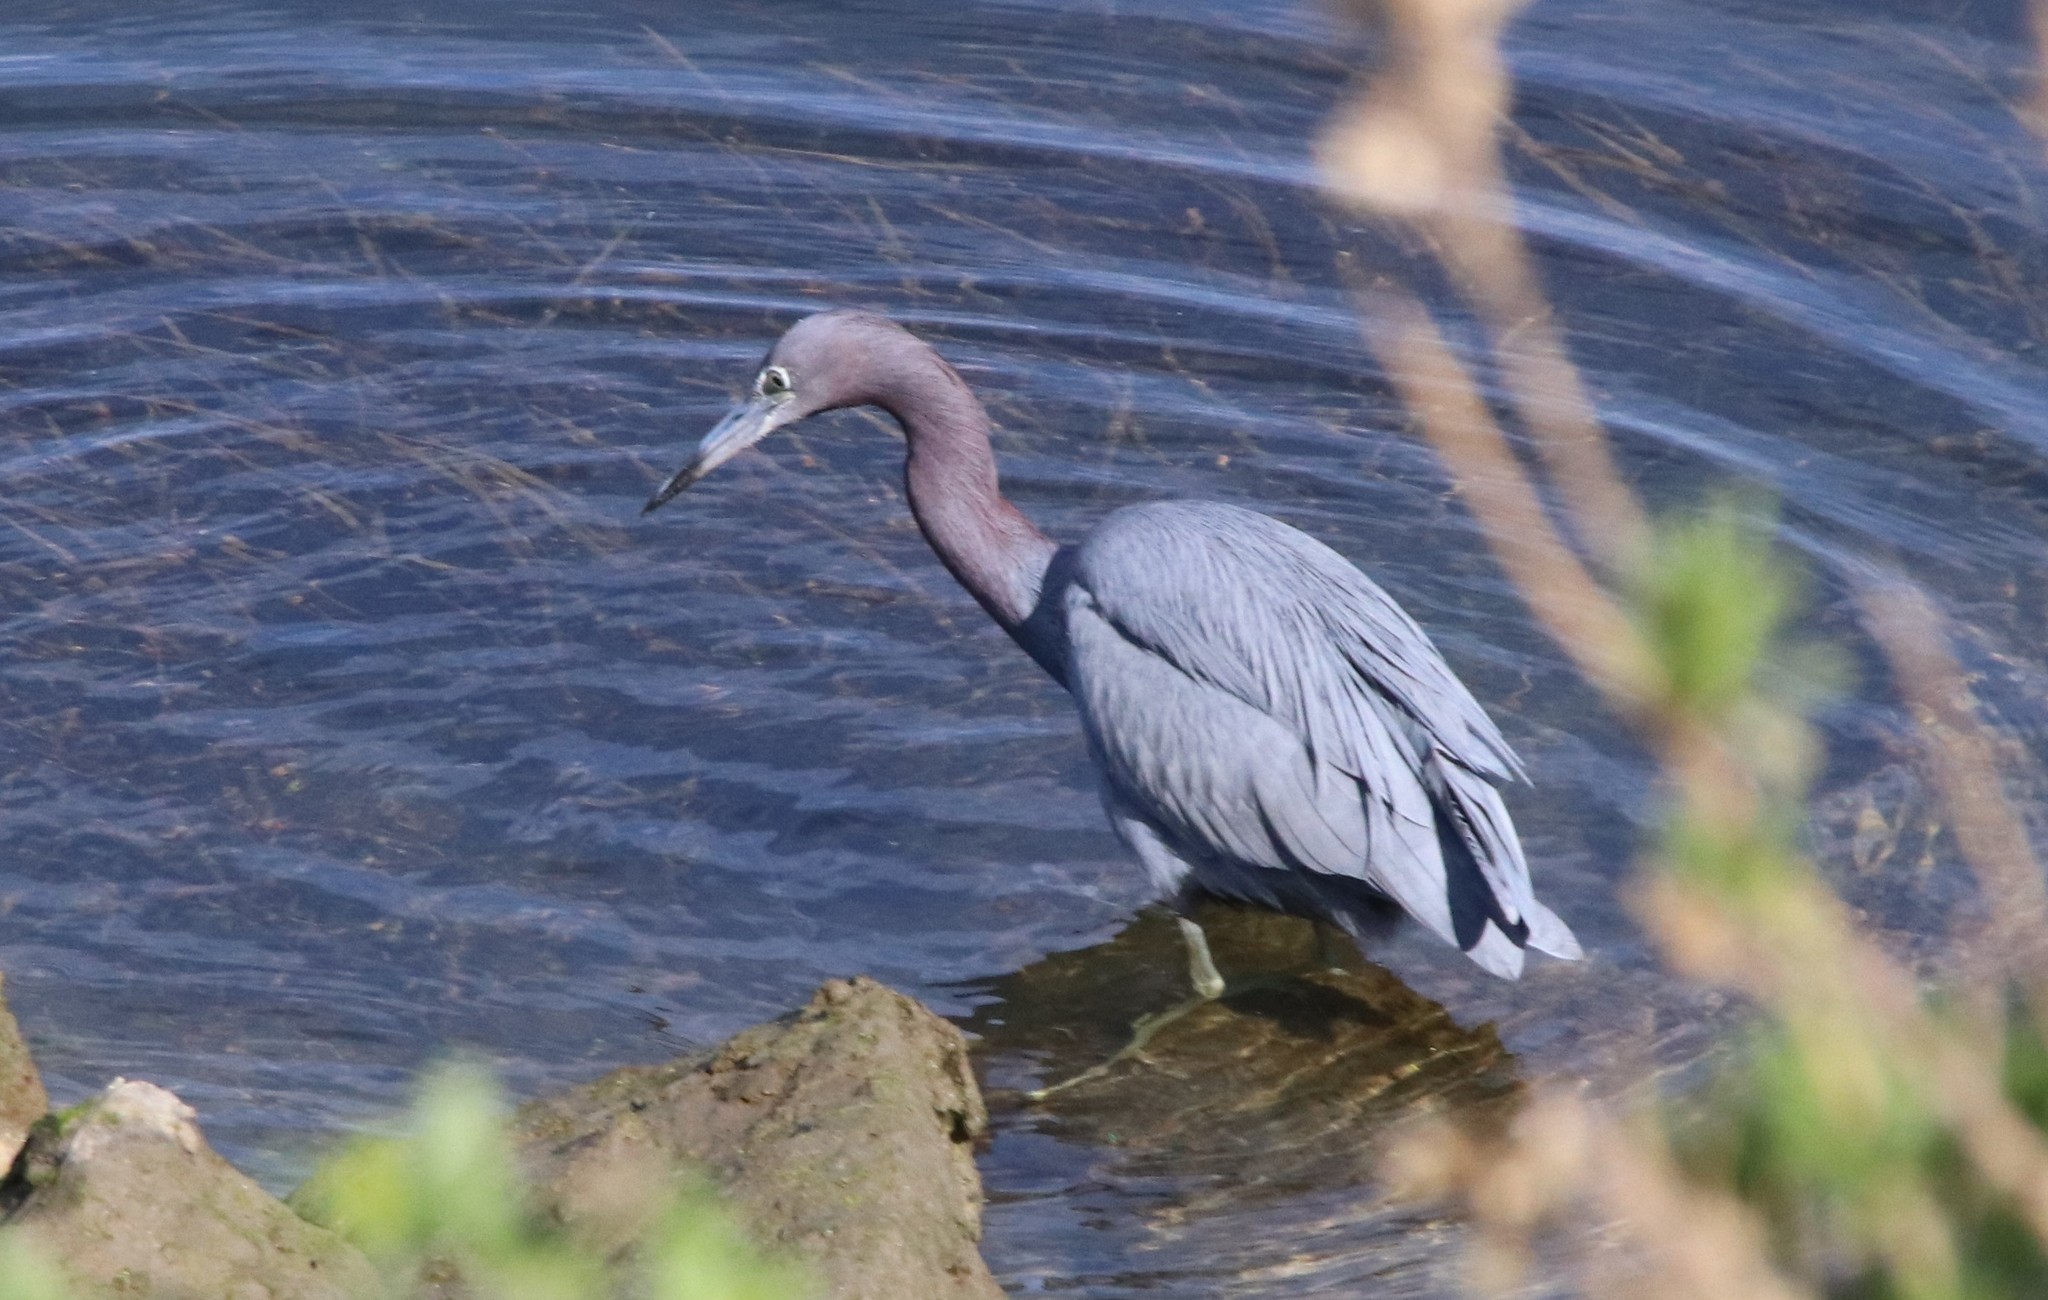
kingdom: Animalia
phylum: Chordata
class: Aves
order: Pelecaniformes
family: Ardeidae
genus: Egretta
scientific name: Egretta caerulea
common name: Little blue heron
